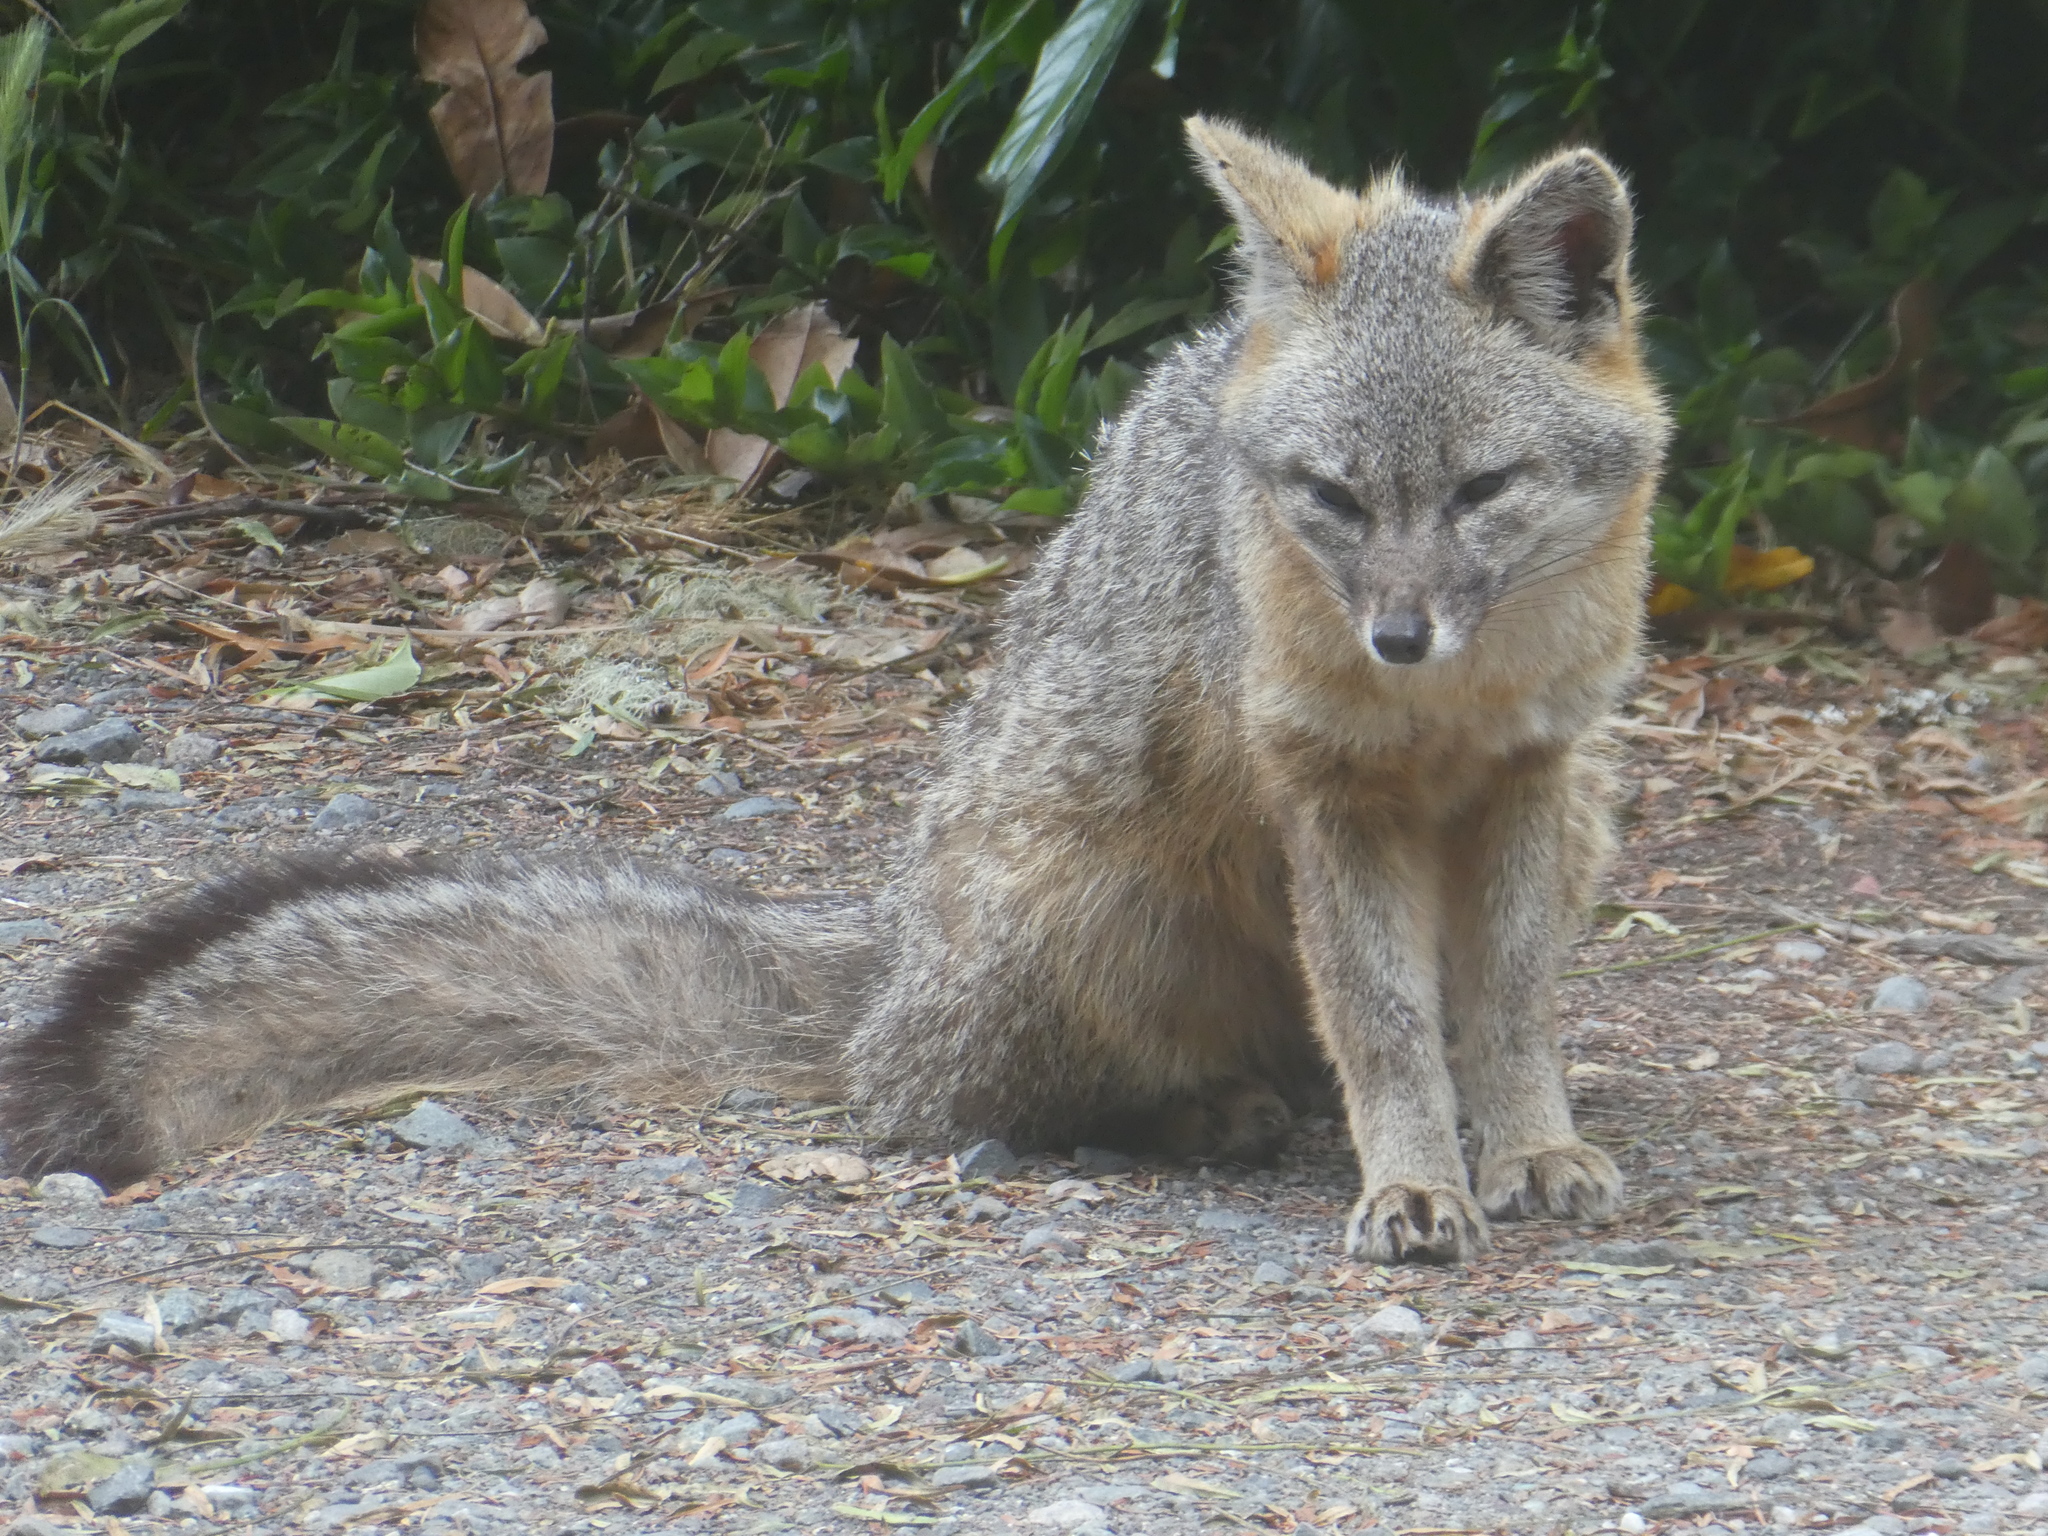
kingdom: Animalia
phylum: Chordata
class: Mammalia
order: Carnivora
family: Canidae
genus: Urocyon
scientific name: Urocyon cinereoargenteus
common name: Gray fox
